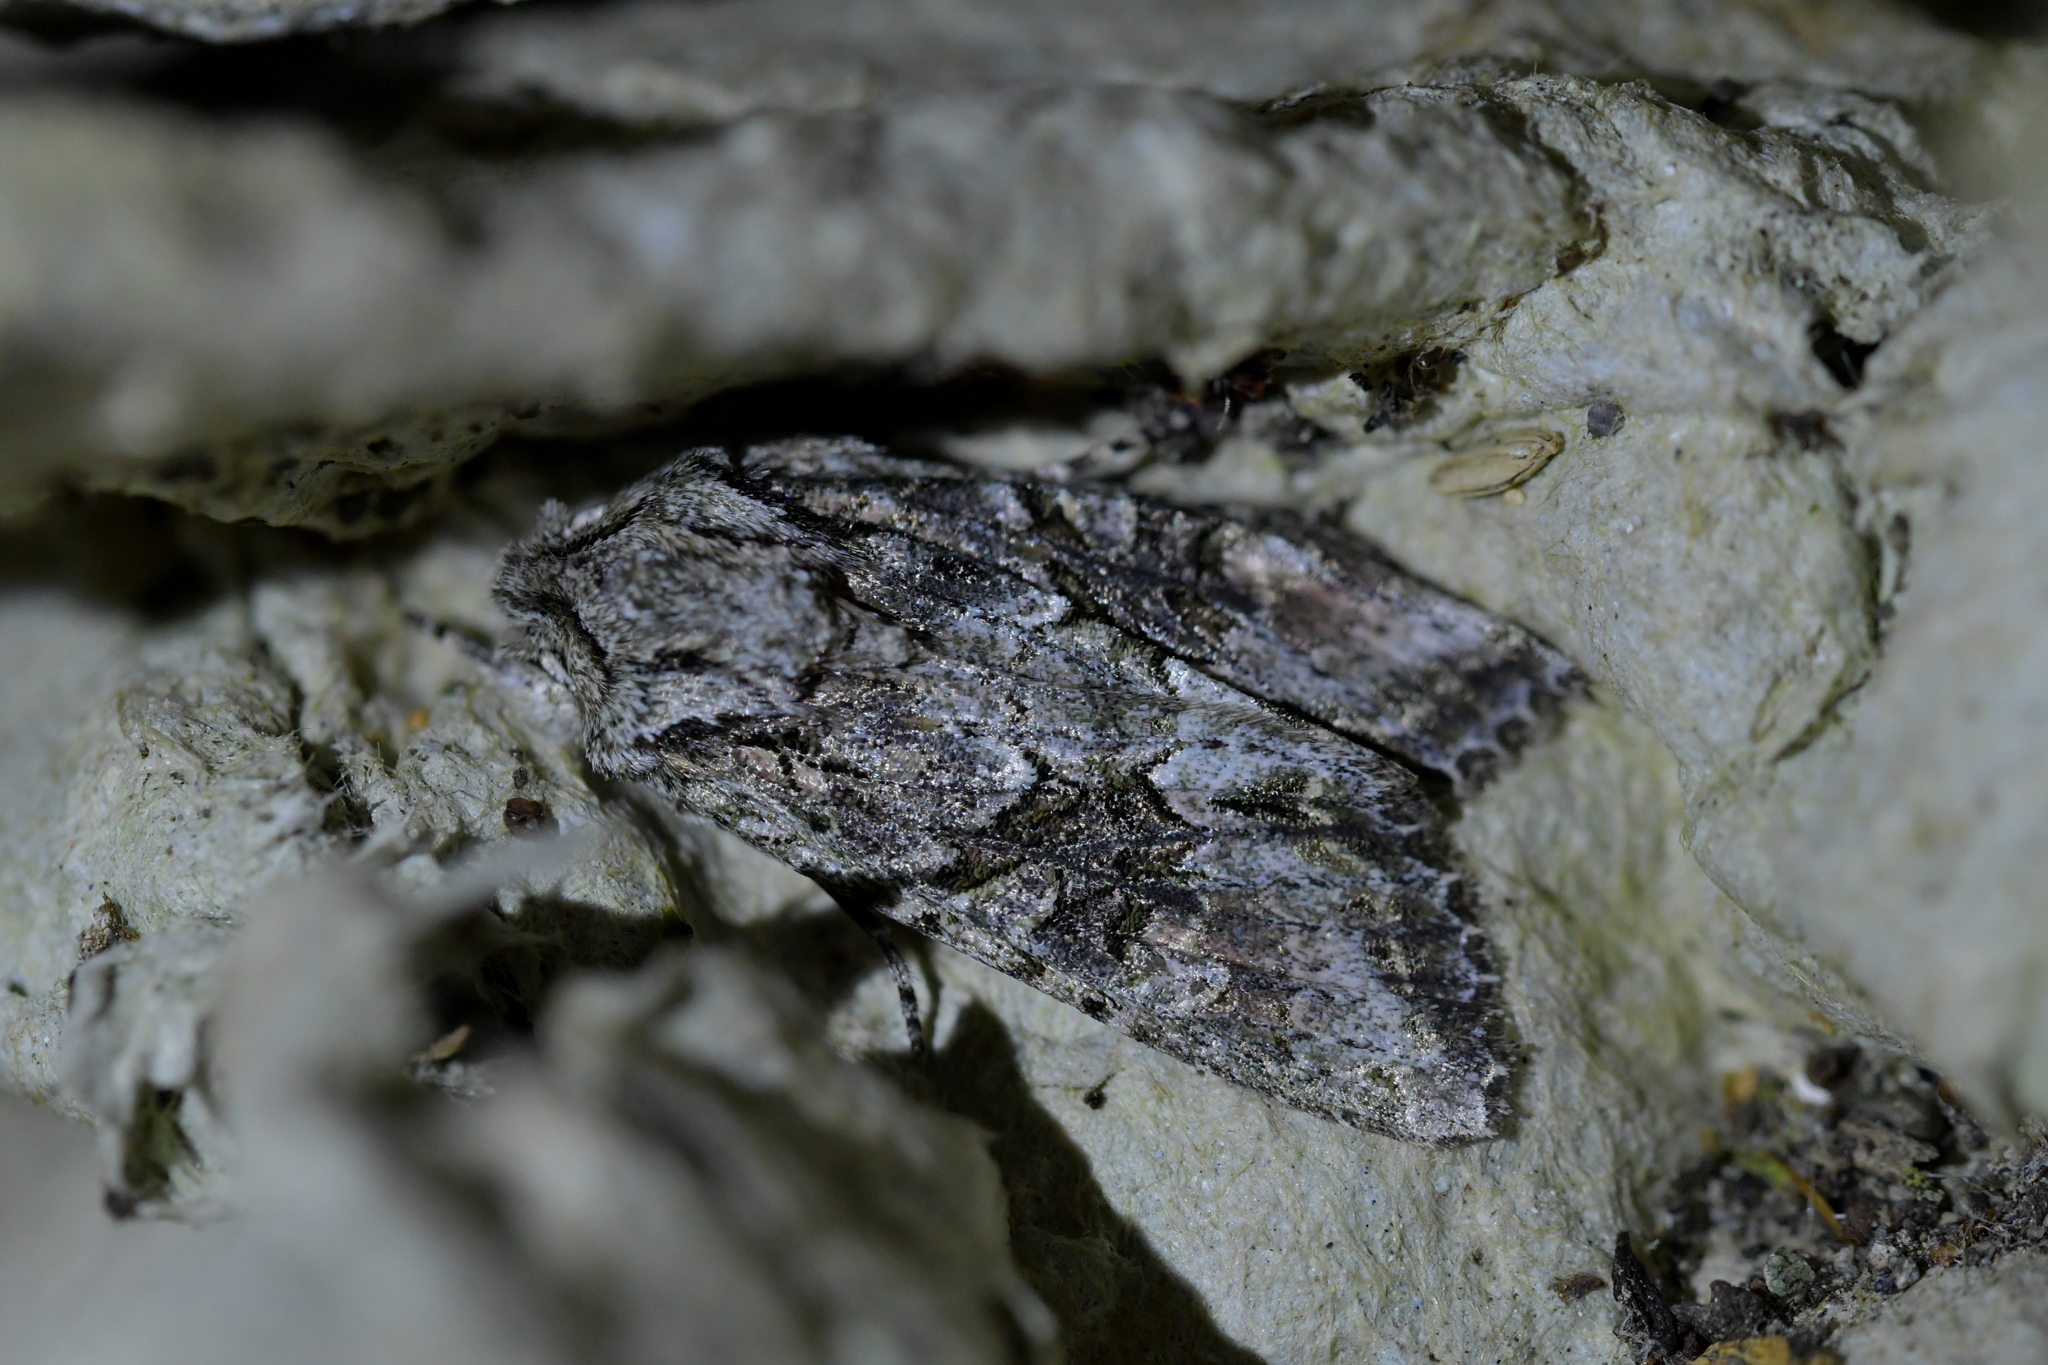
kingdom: Animalia
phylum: Arthropoda
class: Insecta
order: Lepidoptera
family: Noctuidae
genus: Ichneutica
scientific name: Ichneutica mutans
